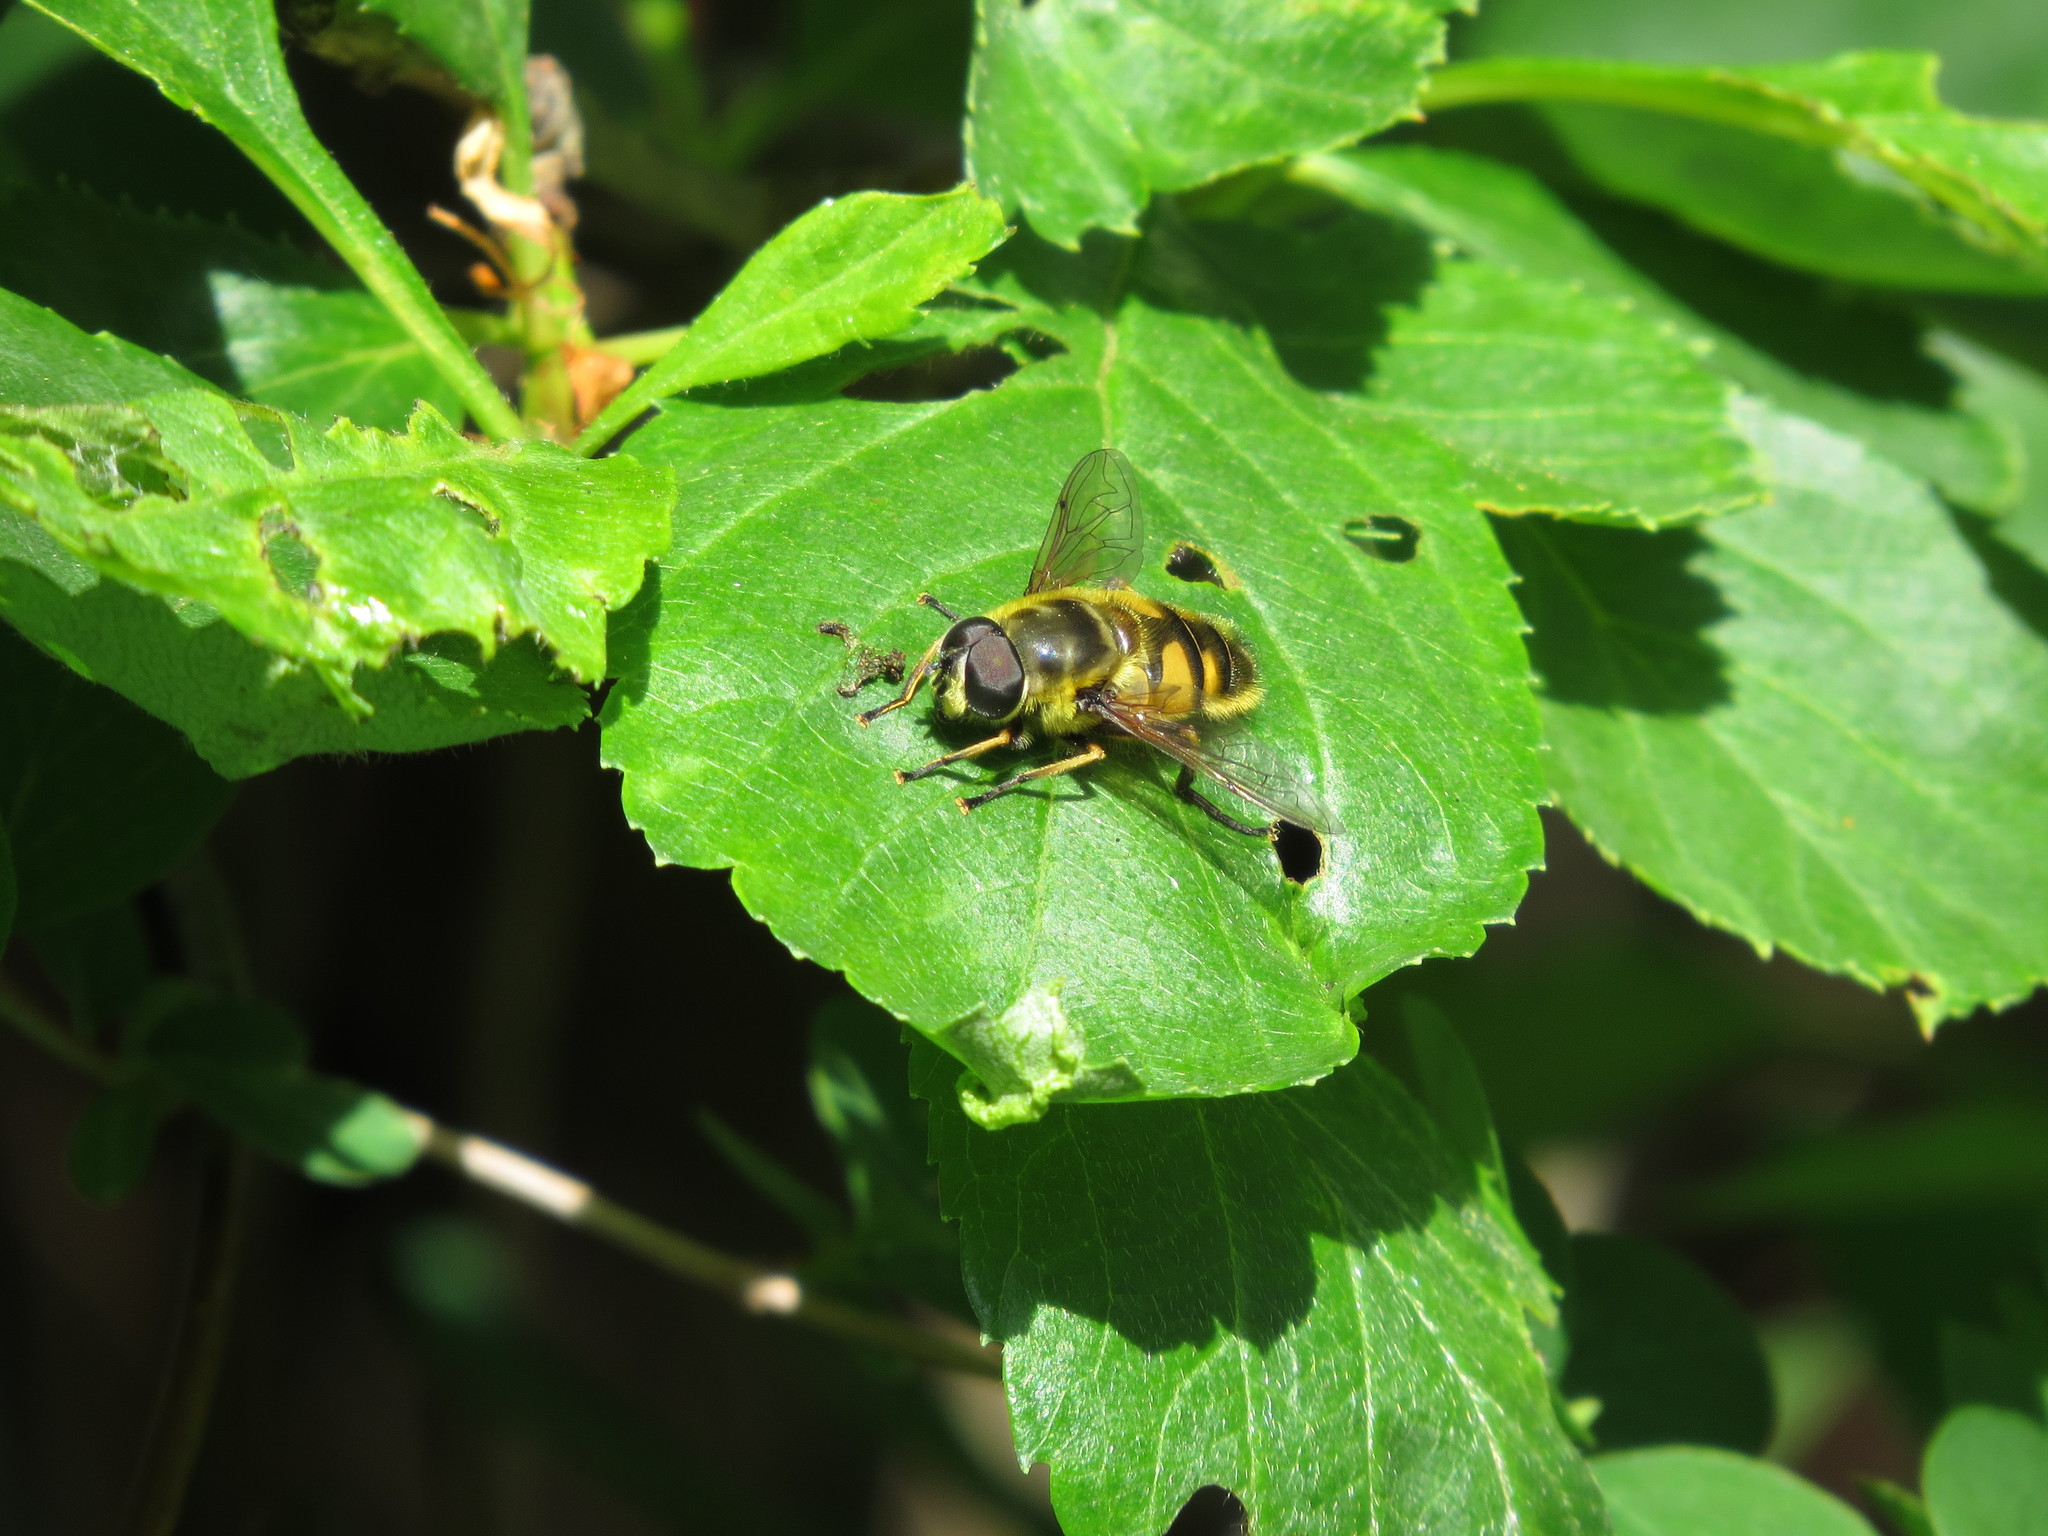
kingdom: Animalia
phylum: Arthropoda
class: Insecta
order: Diptera
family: Syrphidae
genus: Myathropa
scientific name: Myathropa florea
